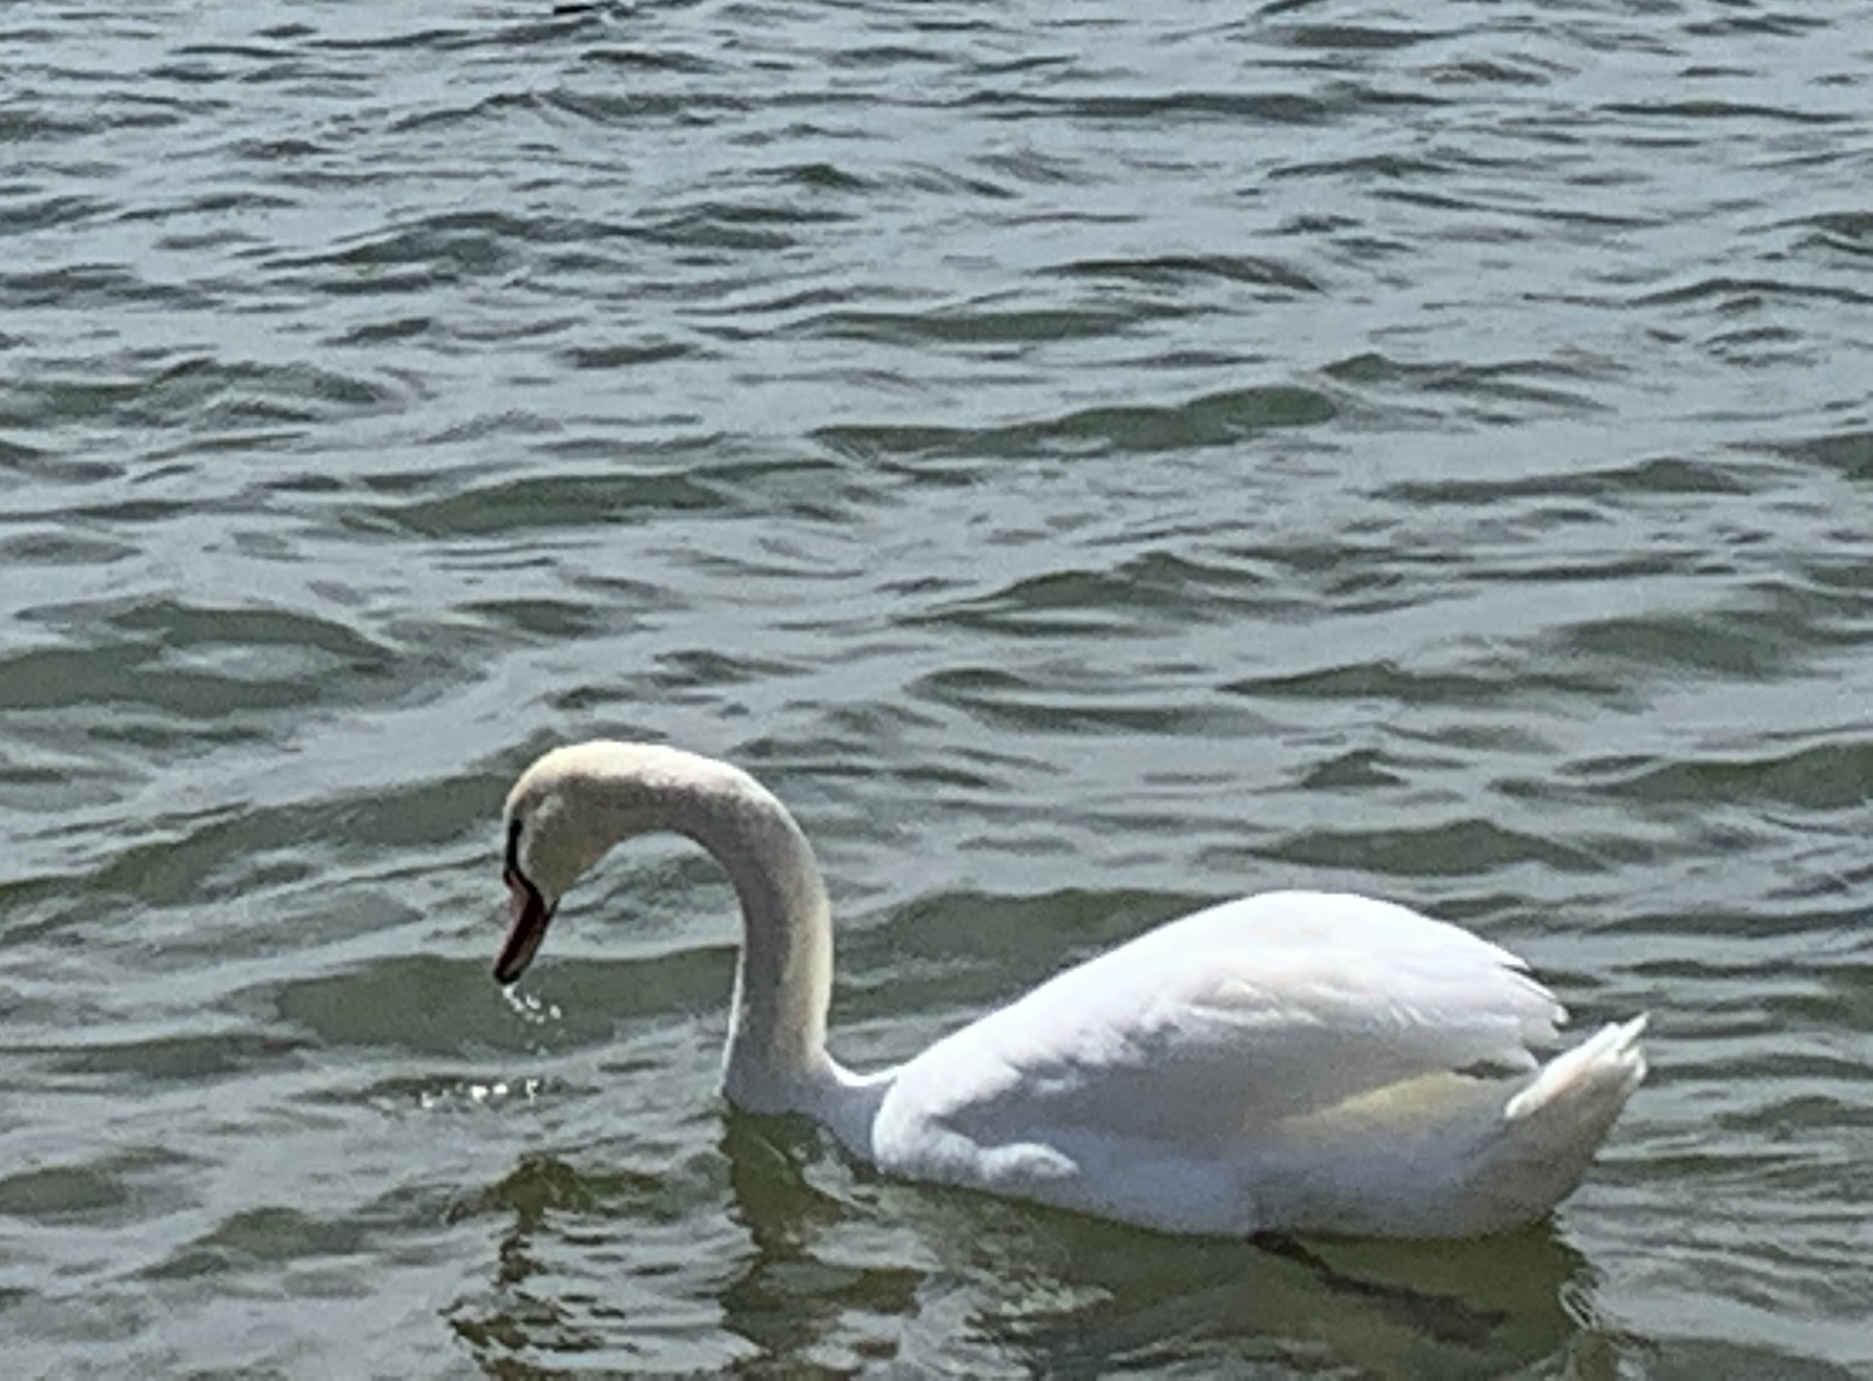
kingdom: Animalia
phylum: Chordata
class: Aves
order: Anseriformes
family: Anatidae
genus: Cygnus
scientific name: Cygnus olor
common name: Mute swan
